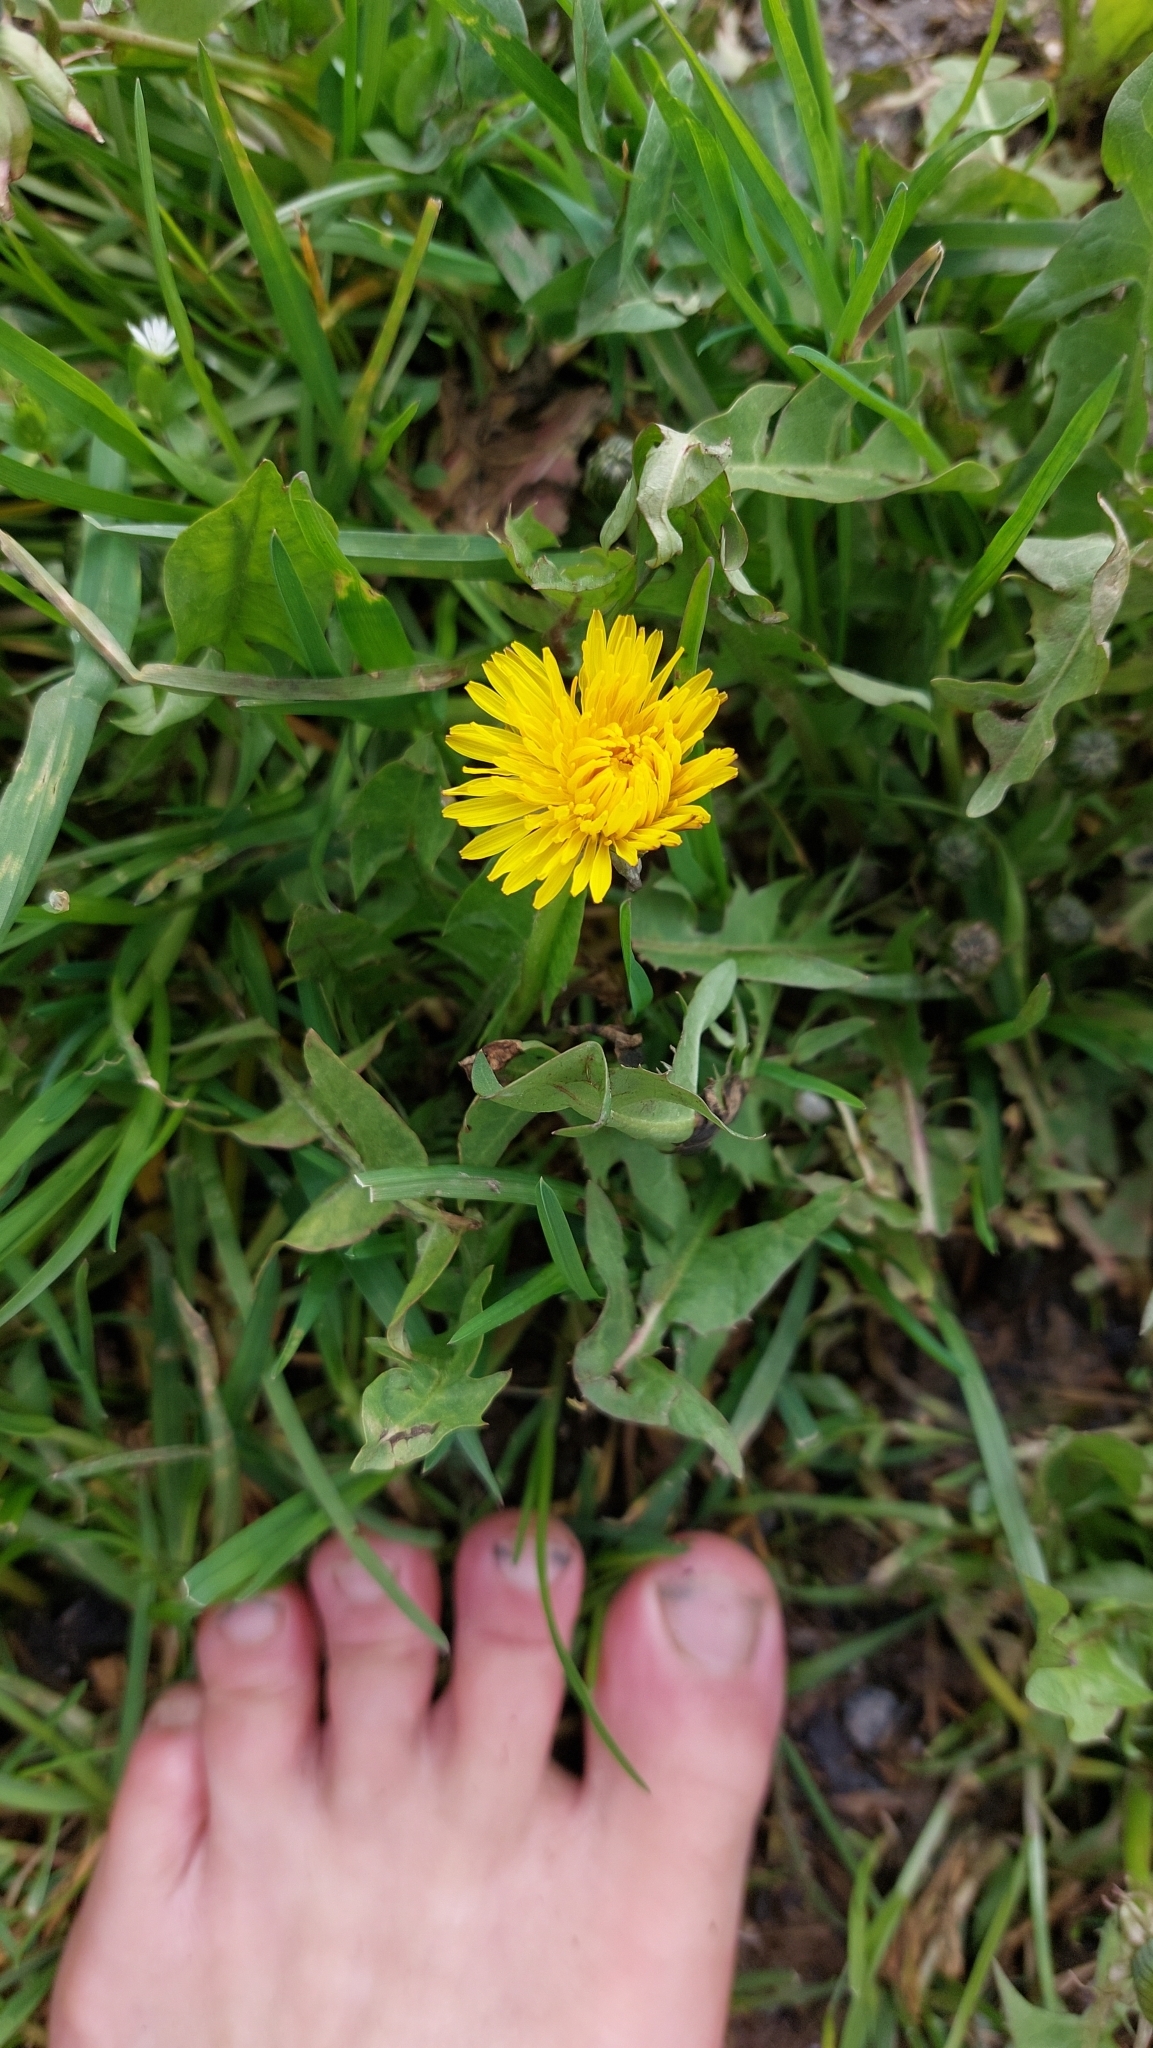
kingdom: Plantae
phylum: Tracheophyta
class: Magnoliopsida
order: Asterales
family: Asteraceae
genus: Taraxacum
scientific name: Taraxacum
